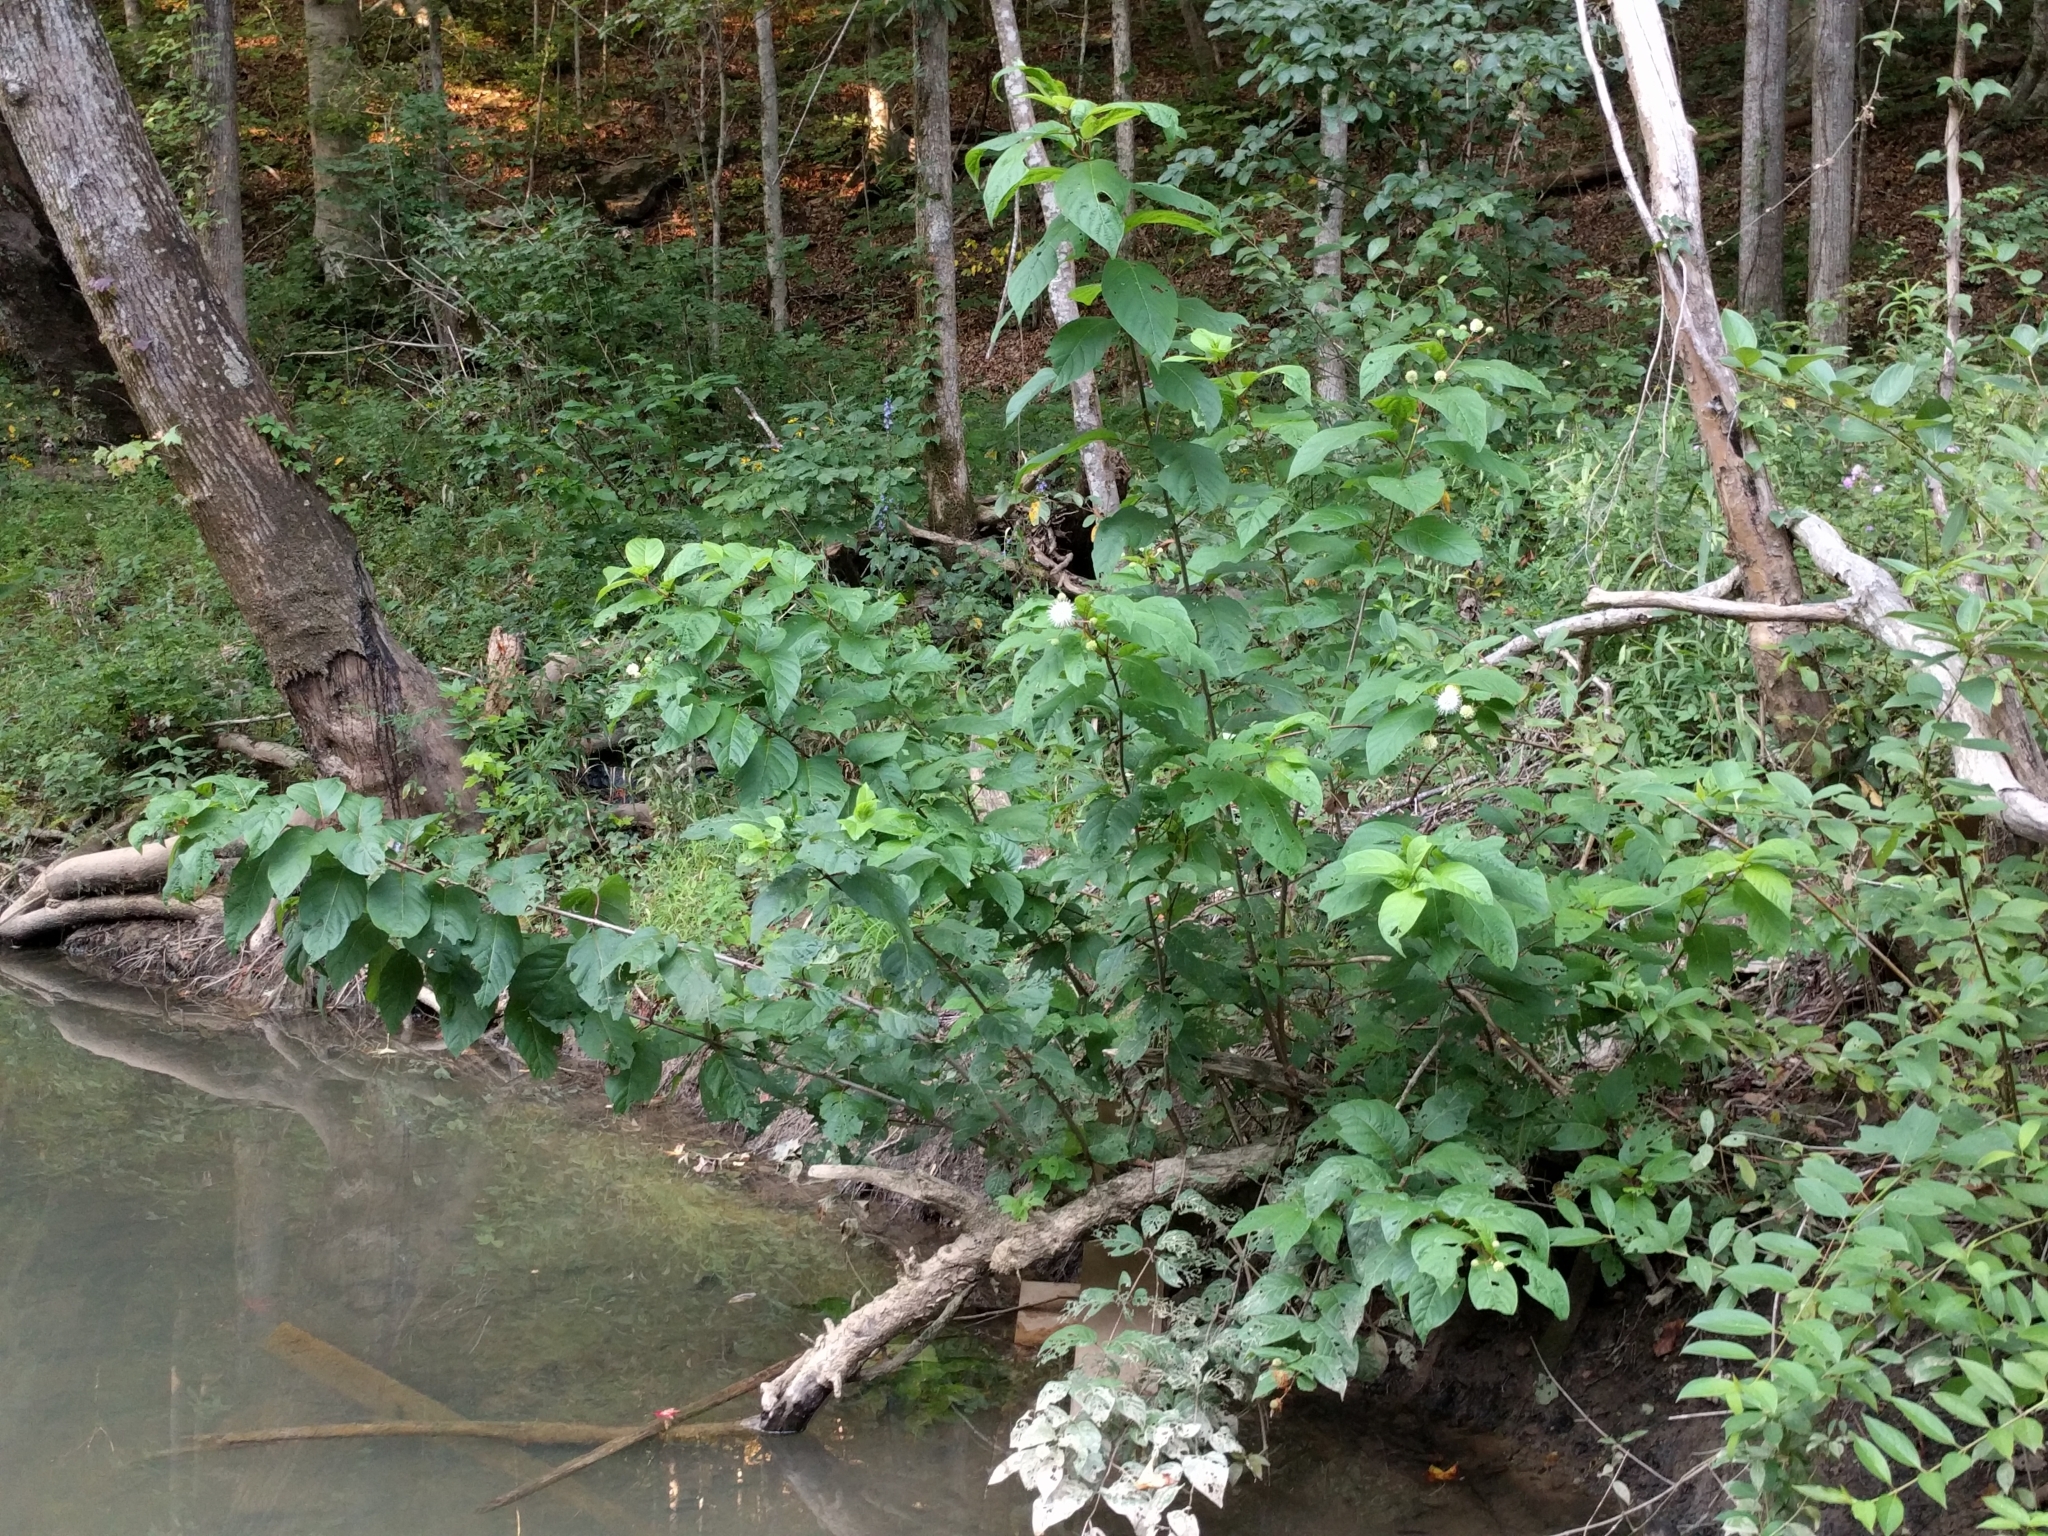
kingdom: Plantae
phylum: Tracheophyta
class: Magnoliopsida
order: Gentianales
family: Rubiaceae
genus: Cephalanthus
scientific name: Cephalanthus occidentalis
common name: Button-willow
